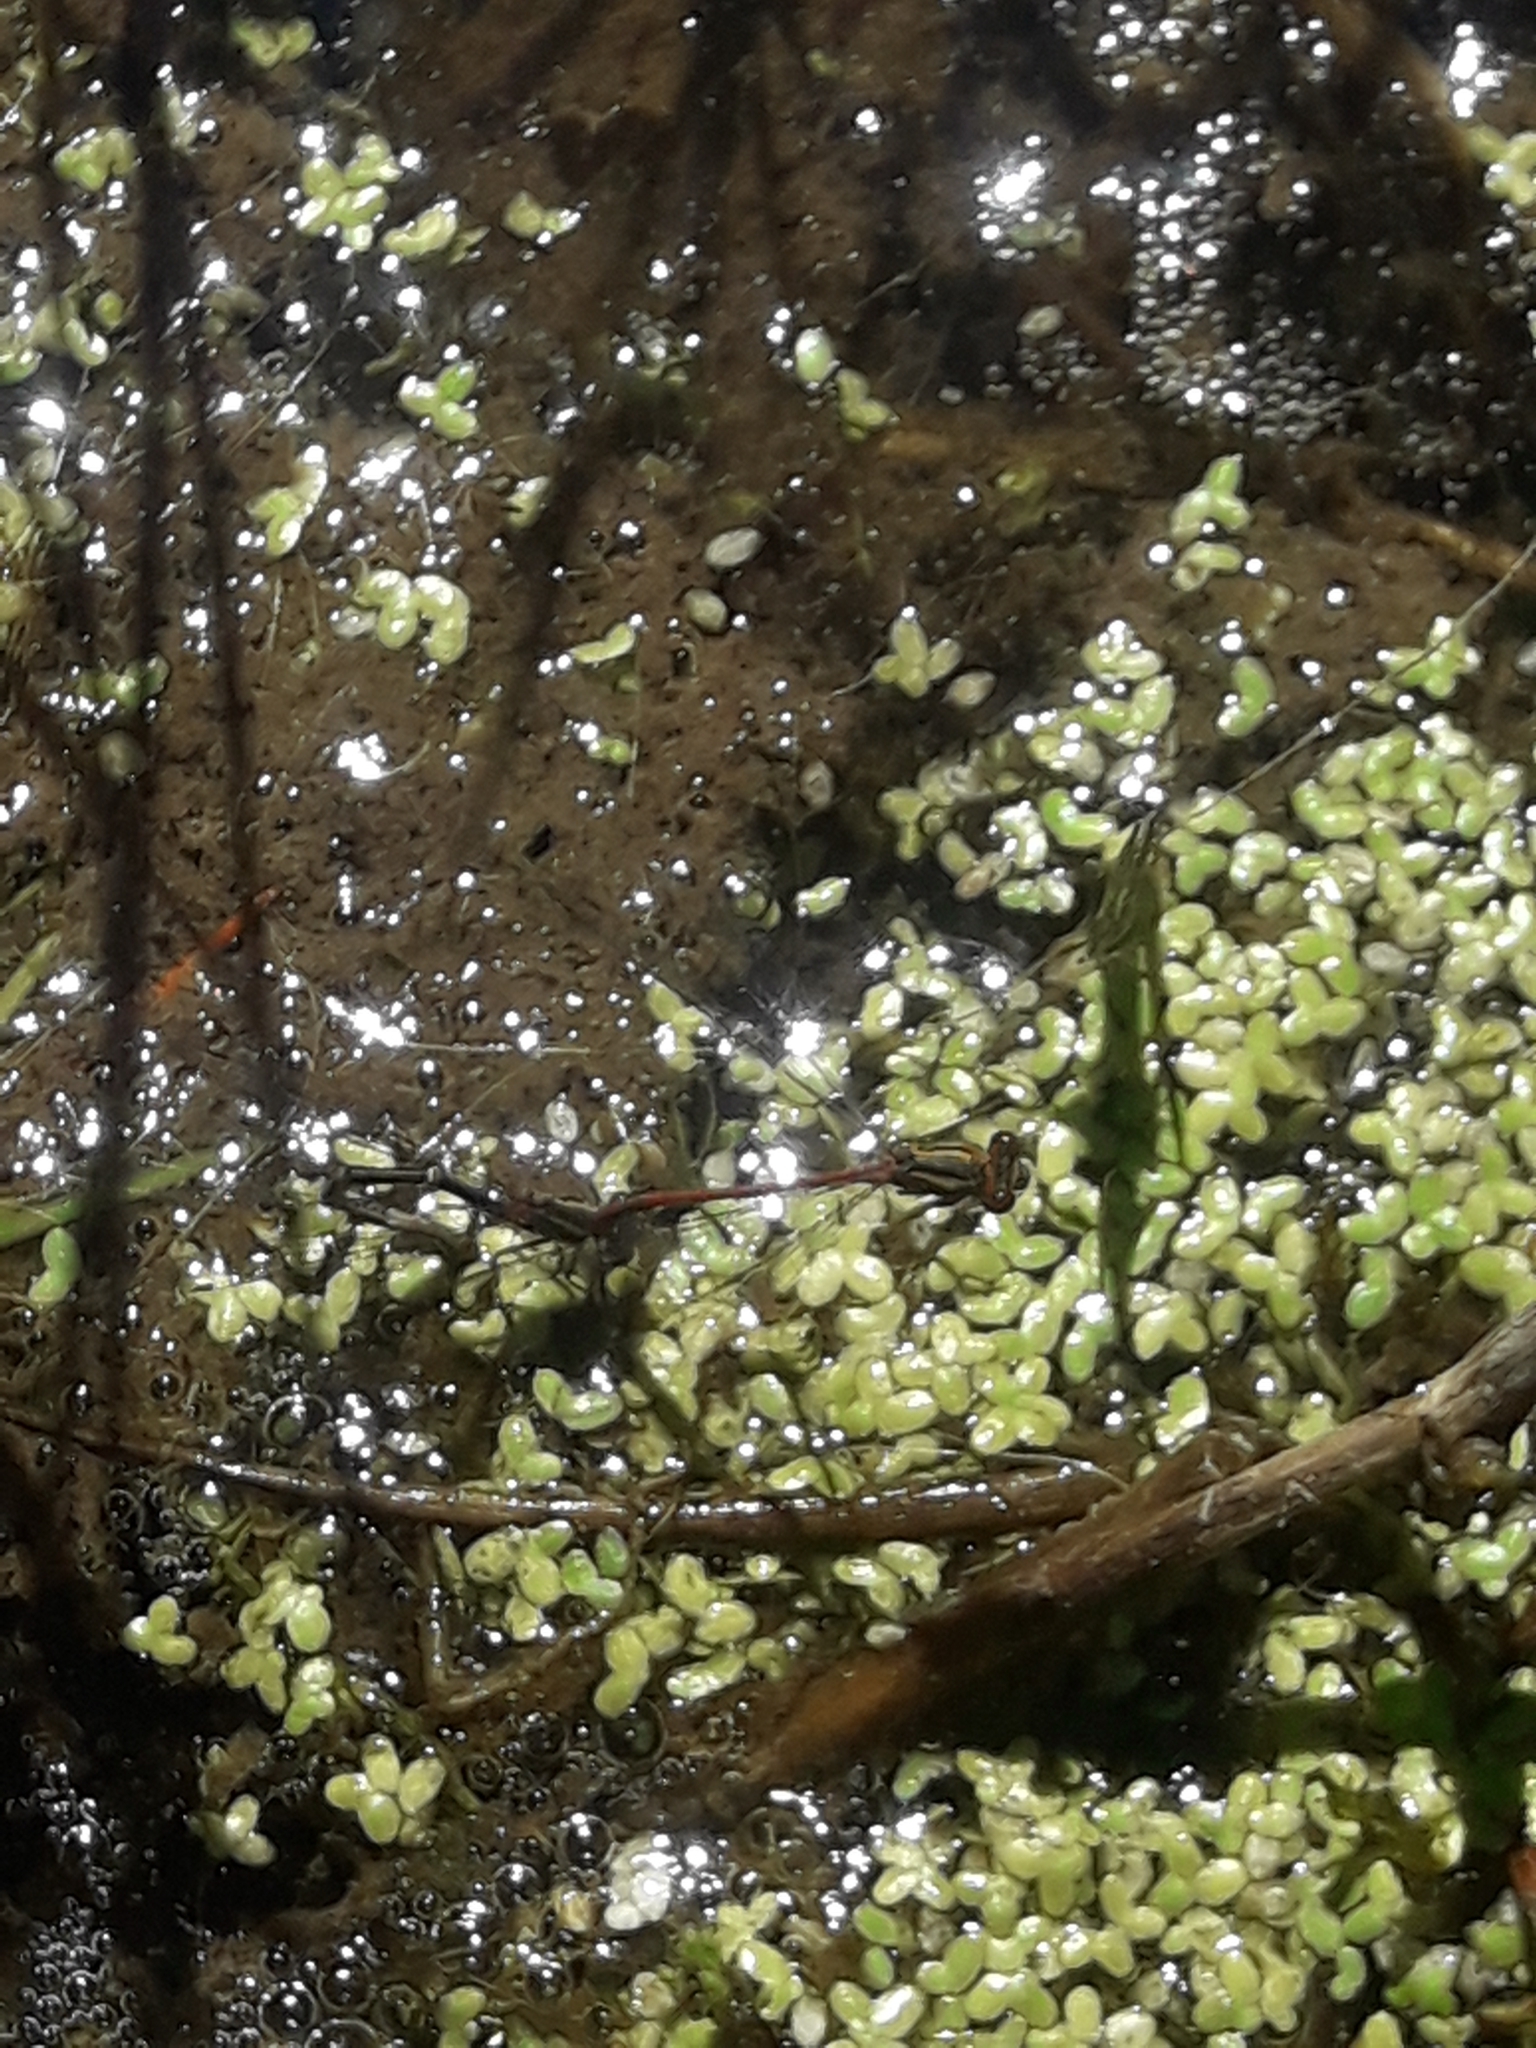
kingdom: Animalia
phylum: Arthropoda
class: Insecta
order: Odonata
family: Coenagrionidae
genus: Xanthocnemis
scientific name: Xanthocnemis zealandica
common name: Common redcoat damselfly
